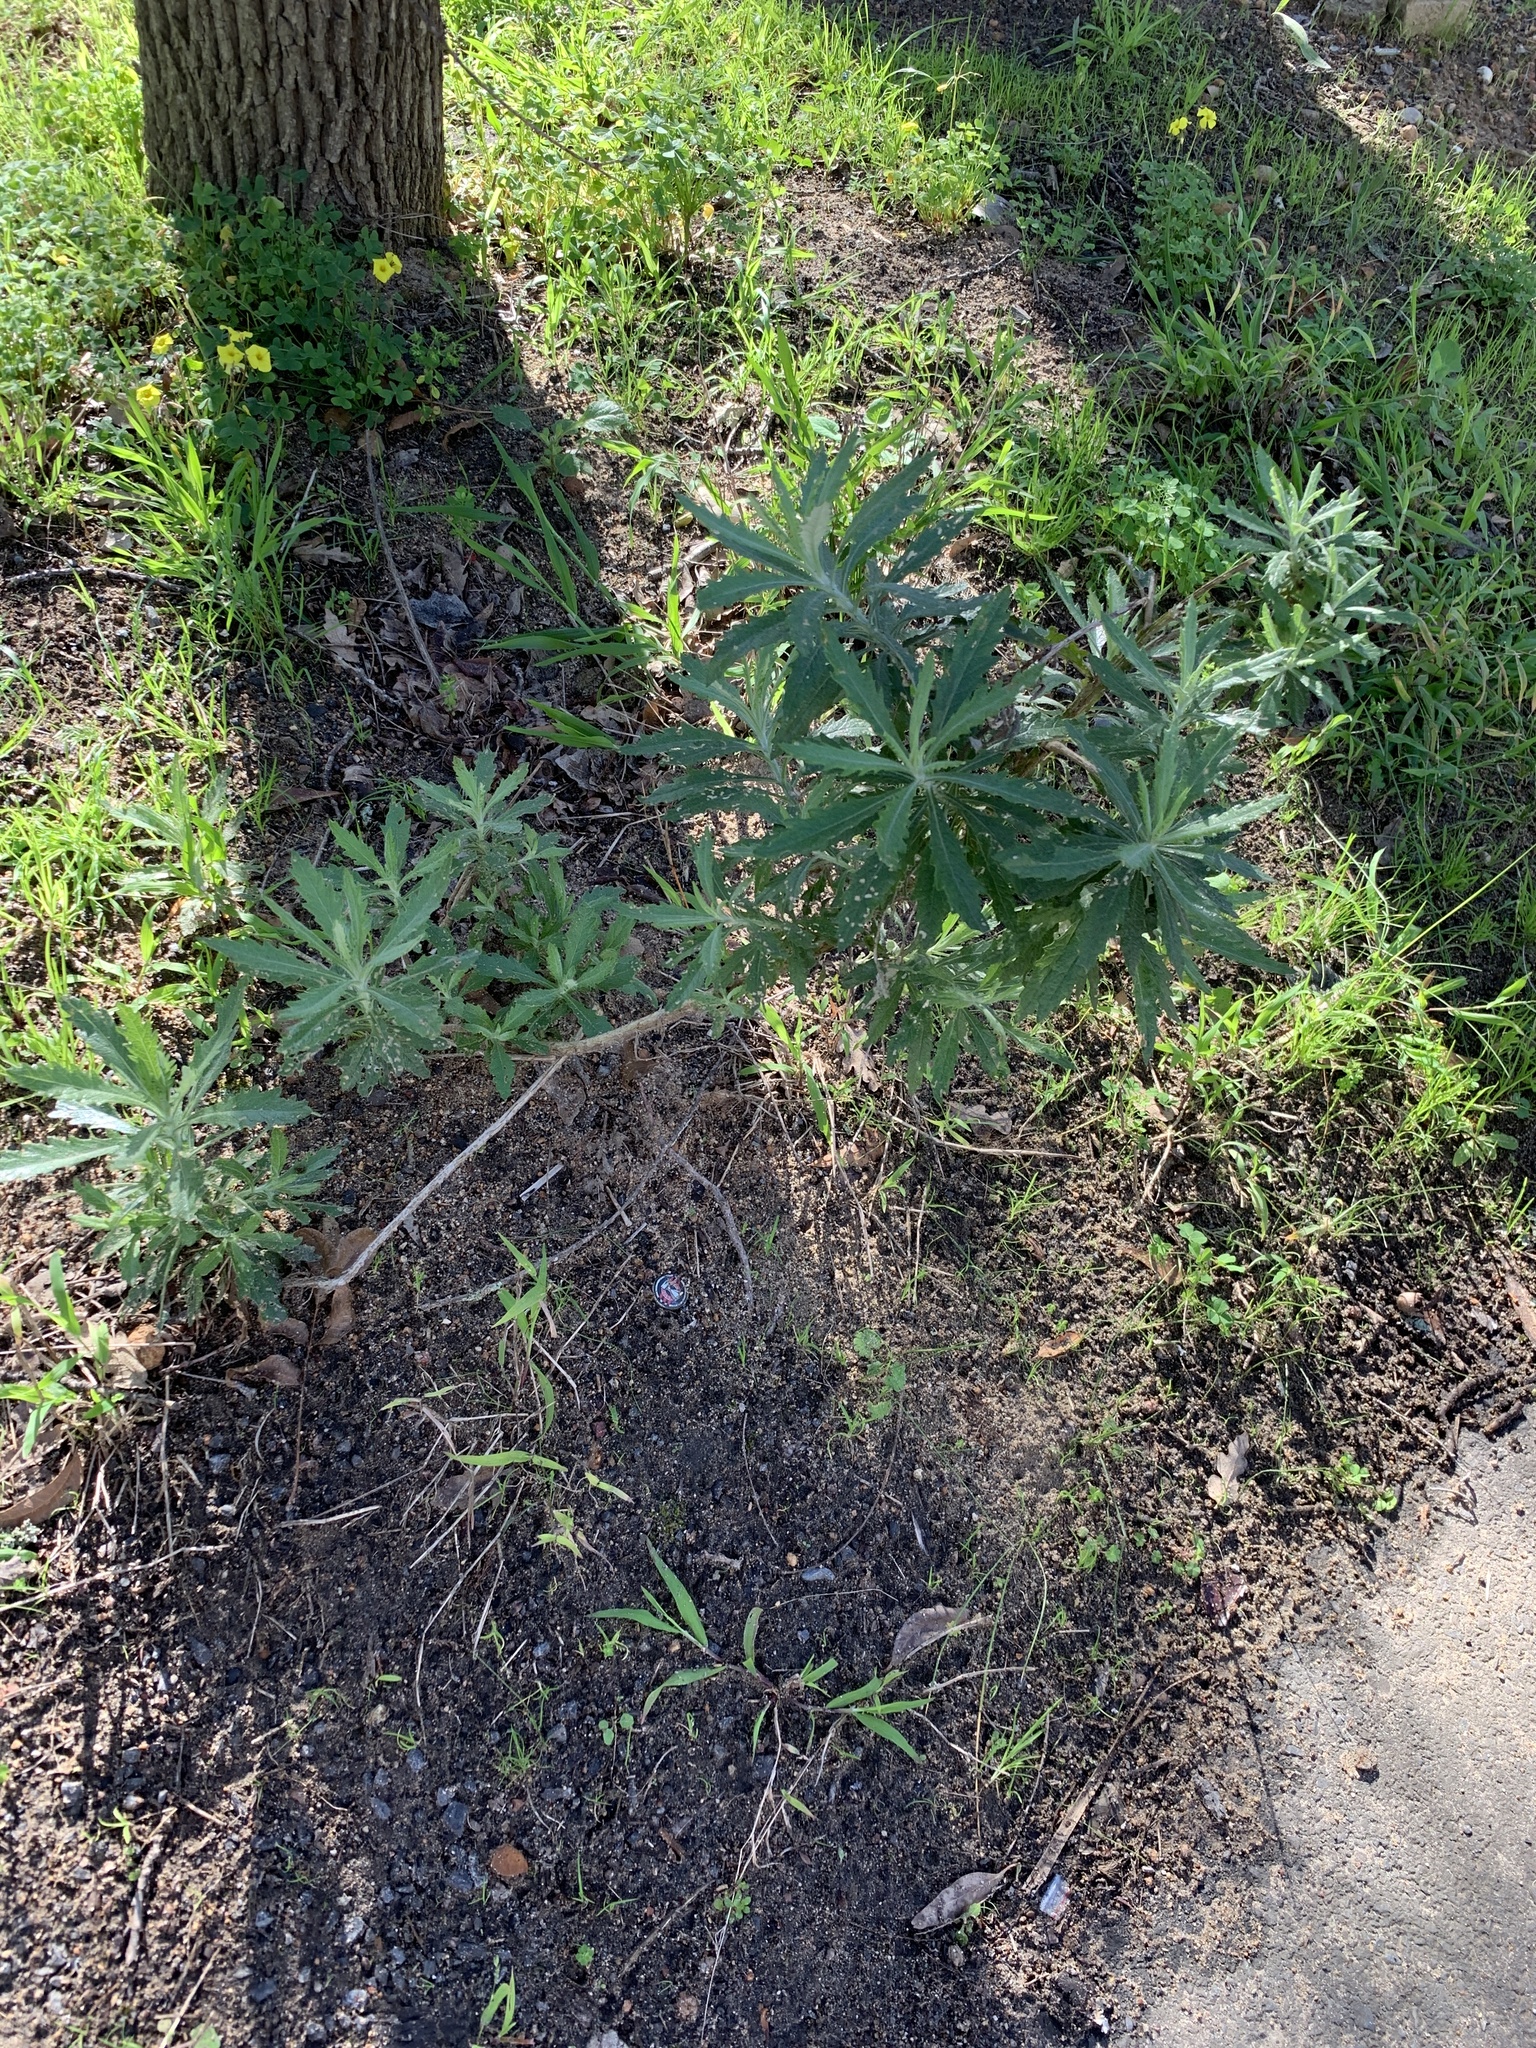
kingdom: Plantae
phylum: Tracheophyta
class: Magnoliopsida
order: Asterales
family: Asteraceae
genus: Senecio
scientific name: Senecio pterophorus
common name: Shoddy ragwort
